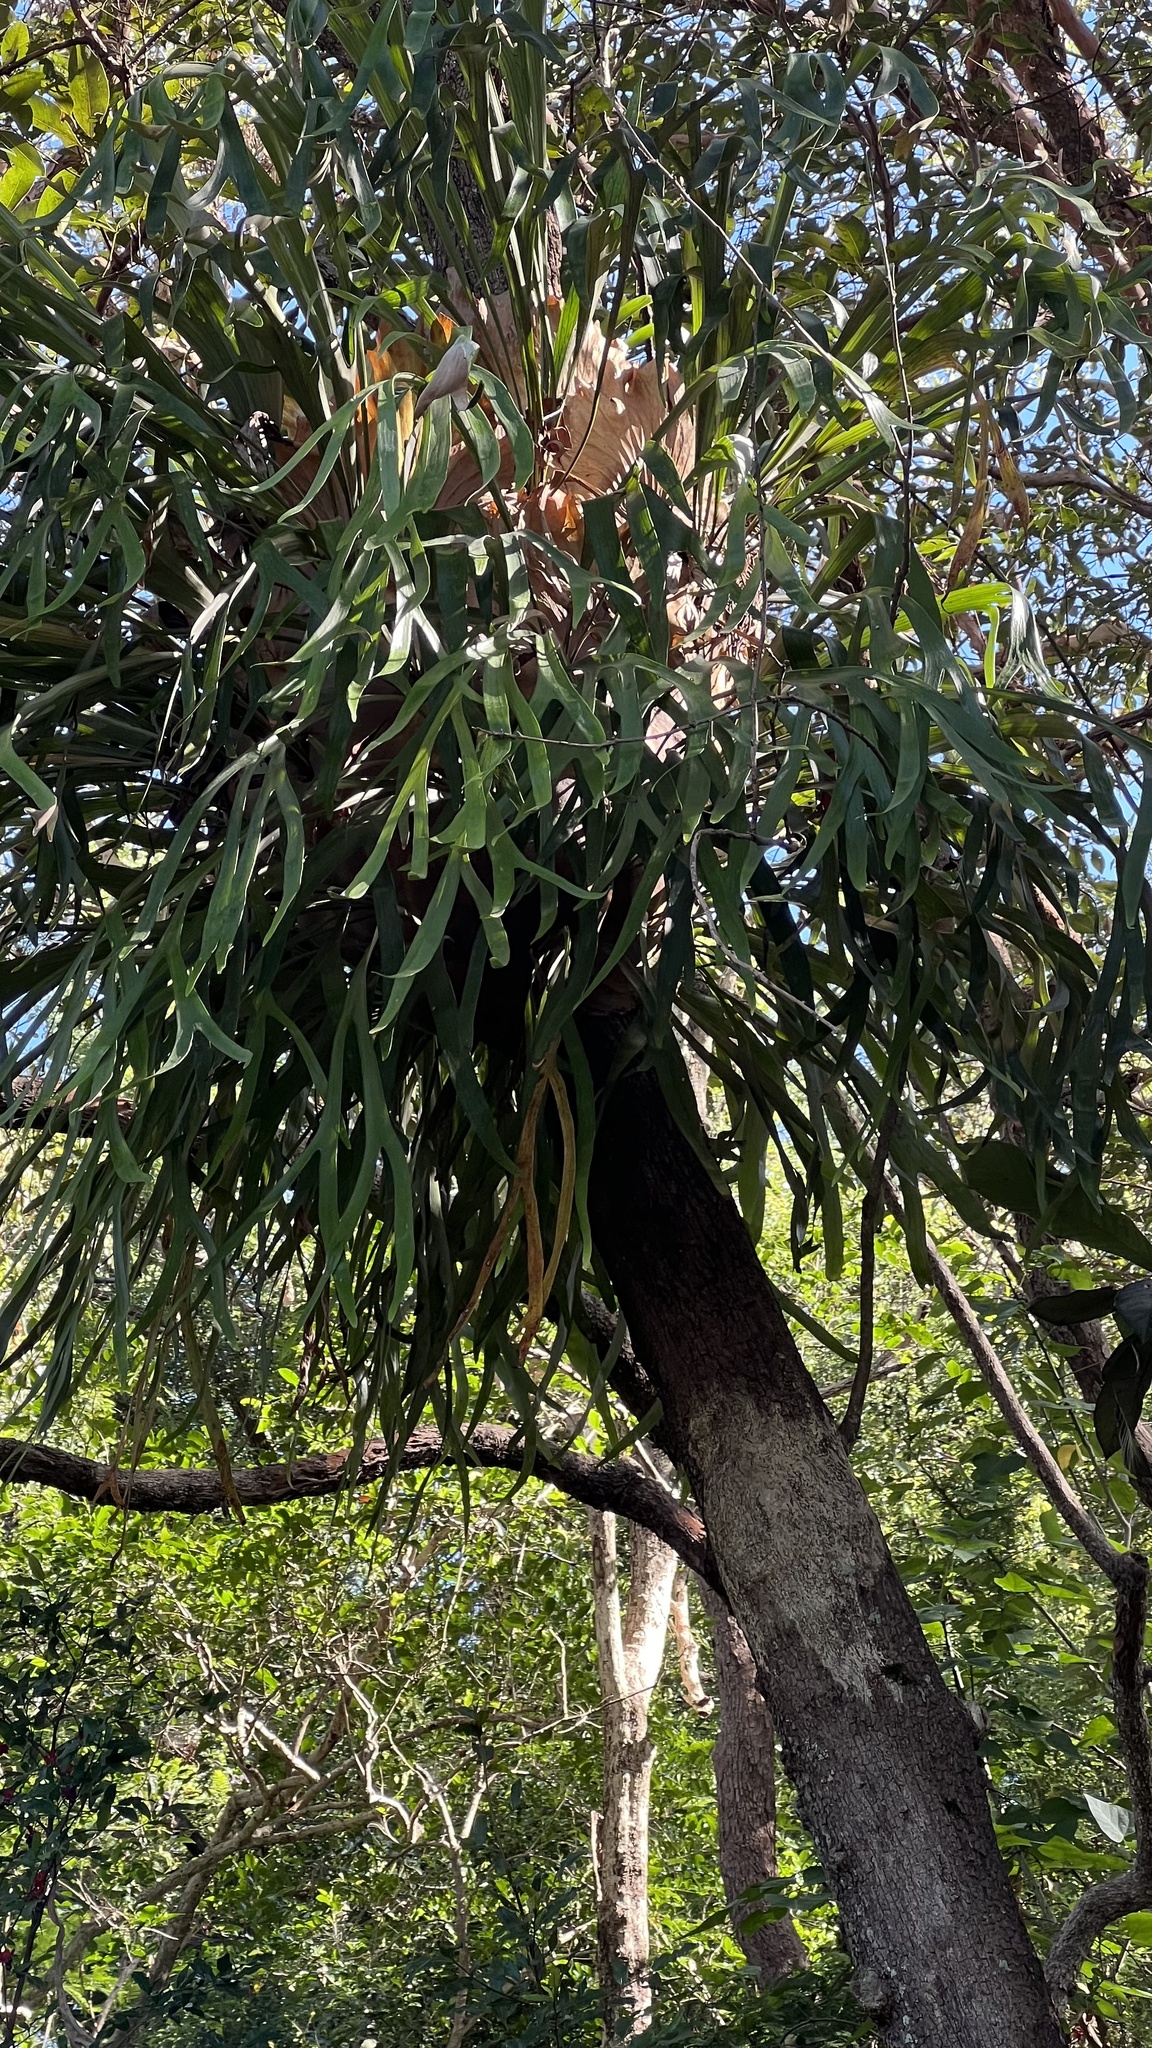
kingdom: Plantae
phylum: Tracheophyta
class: Polypodiopsida
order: Polypodiales
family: Polypodiaceae
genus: Platycerium
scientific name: Platycerium bifurcatum
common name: Elkhorn fern
